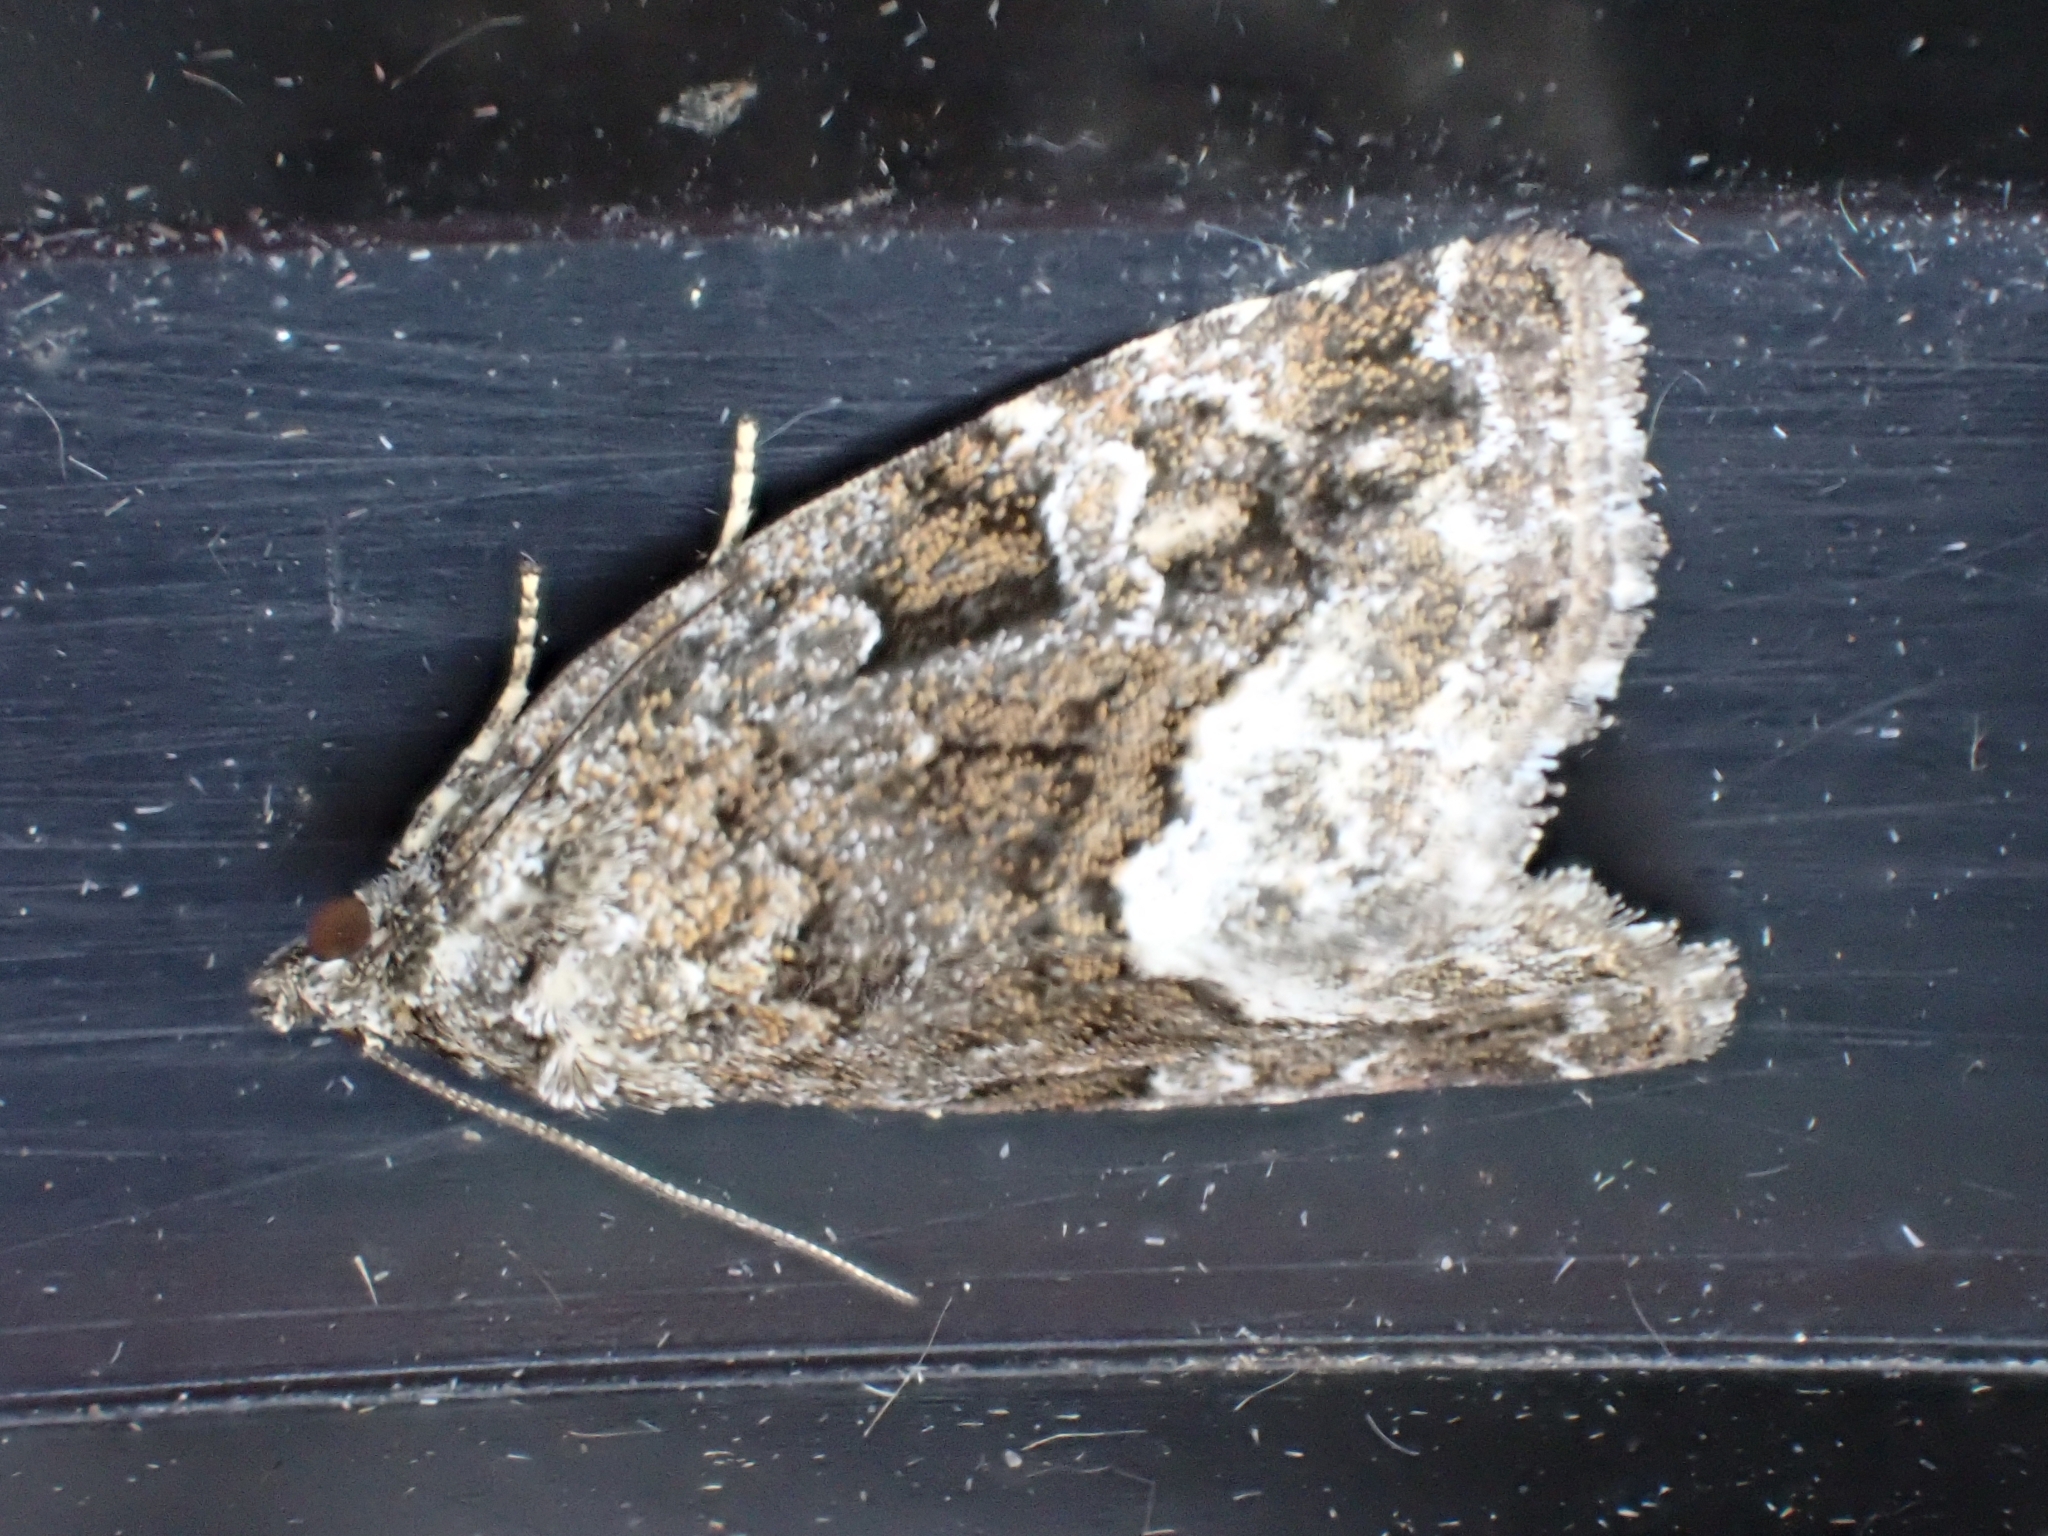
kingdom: Animalia
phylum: Arthropoda
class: Insecta
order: Lepidoptera
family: Noctuidae
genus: Deltote
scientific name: Deltote pygarga
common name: Marbled white spot
